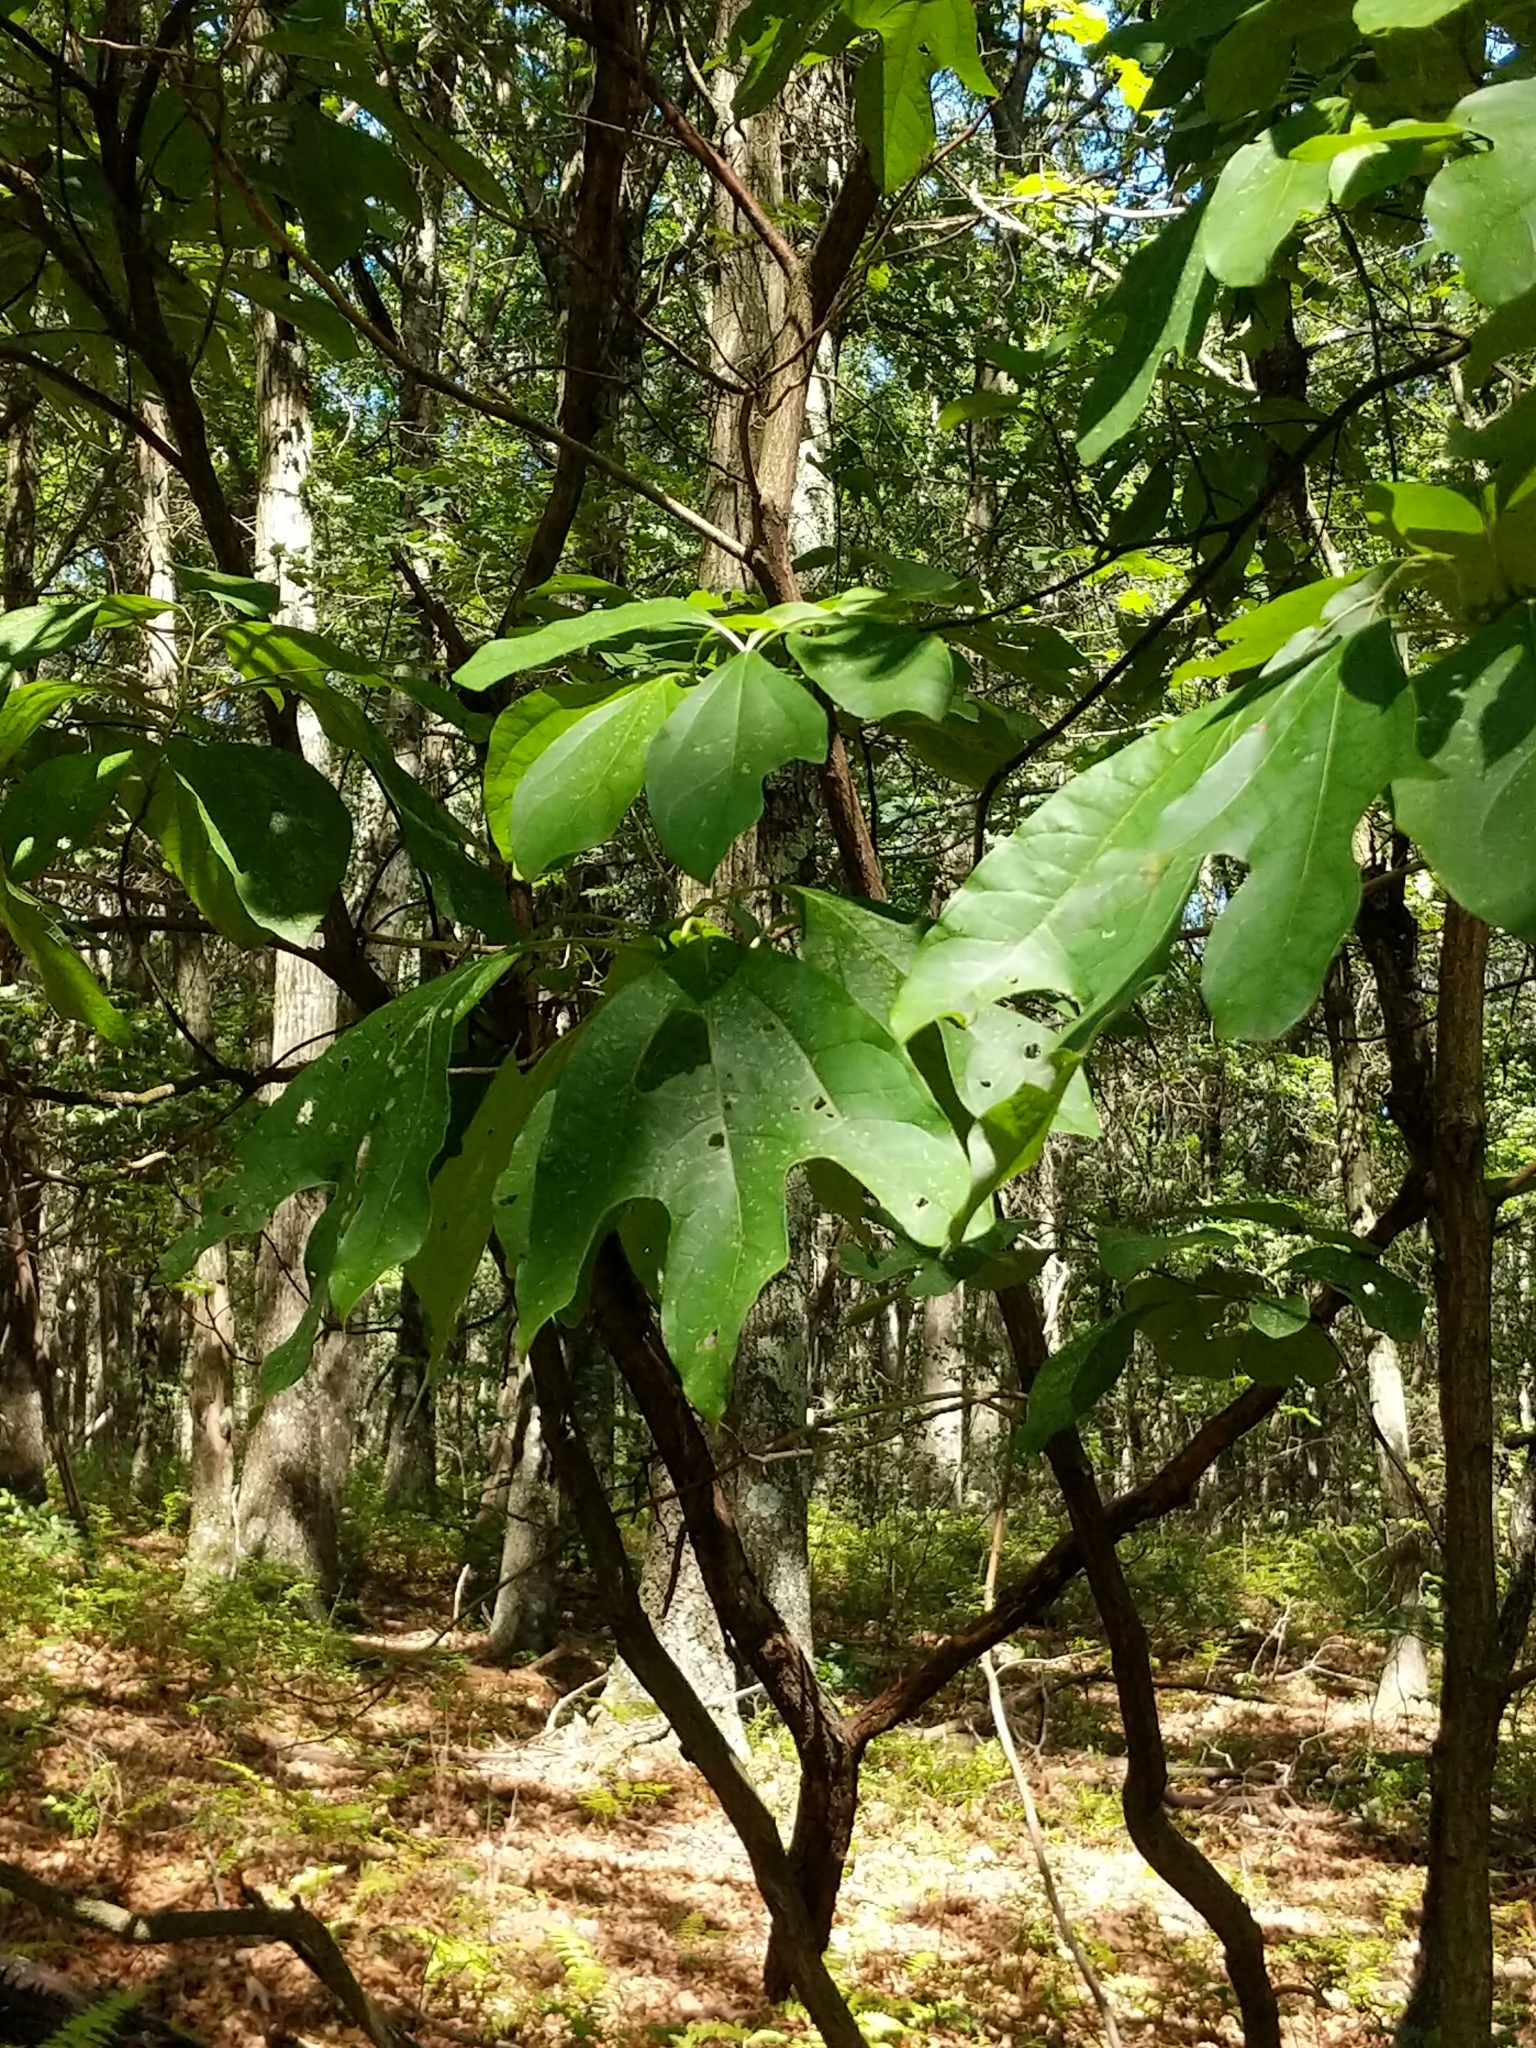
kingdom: Plantae
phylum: Tracheophyta
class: Magnoliopsida
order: Laurales
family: Lauraceae
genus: Sassafras
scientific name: Sassafras albidum
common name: Sassafras
